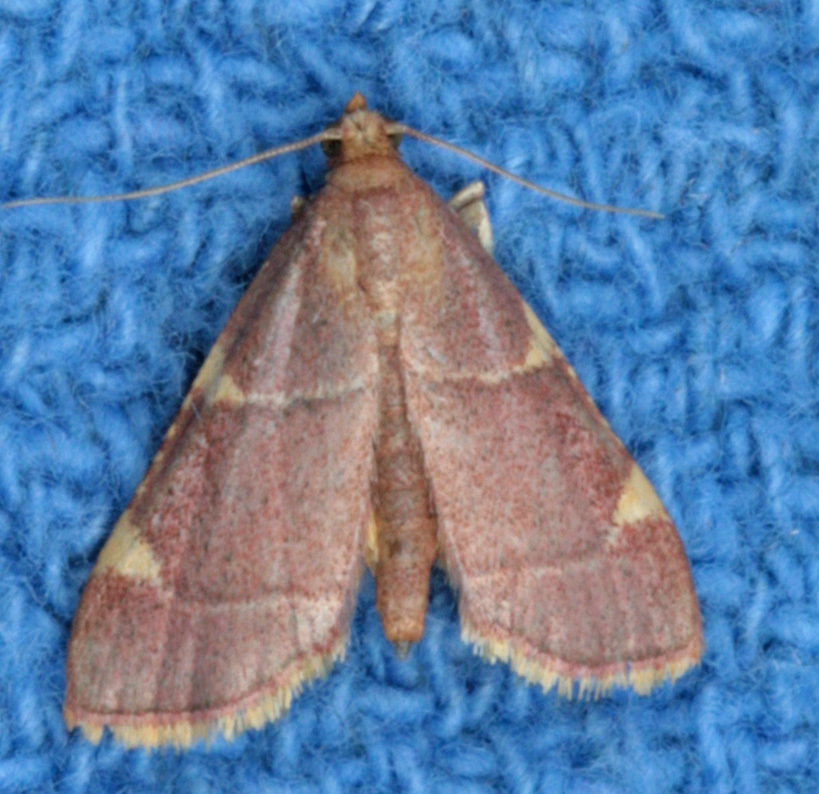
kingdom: Animalia
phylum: Arthropoda
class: Insecta
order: Lepidoptera
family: Pyralidae
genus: Hypsopygia
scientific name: Hypsopygia olinalis
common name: Yellow-fringed dolichomia moth
